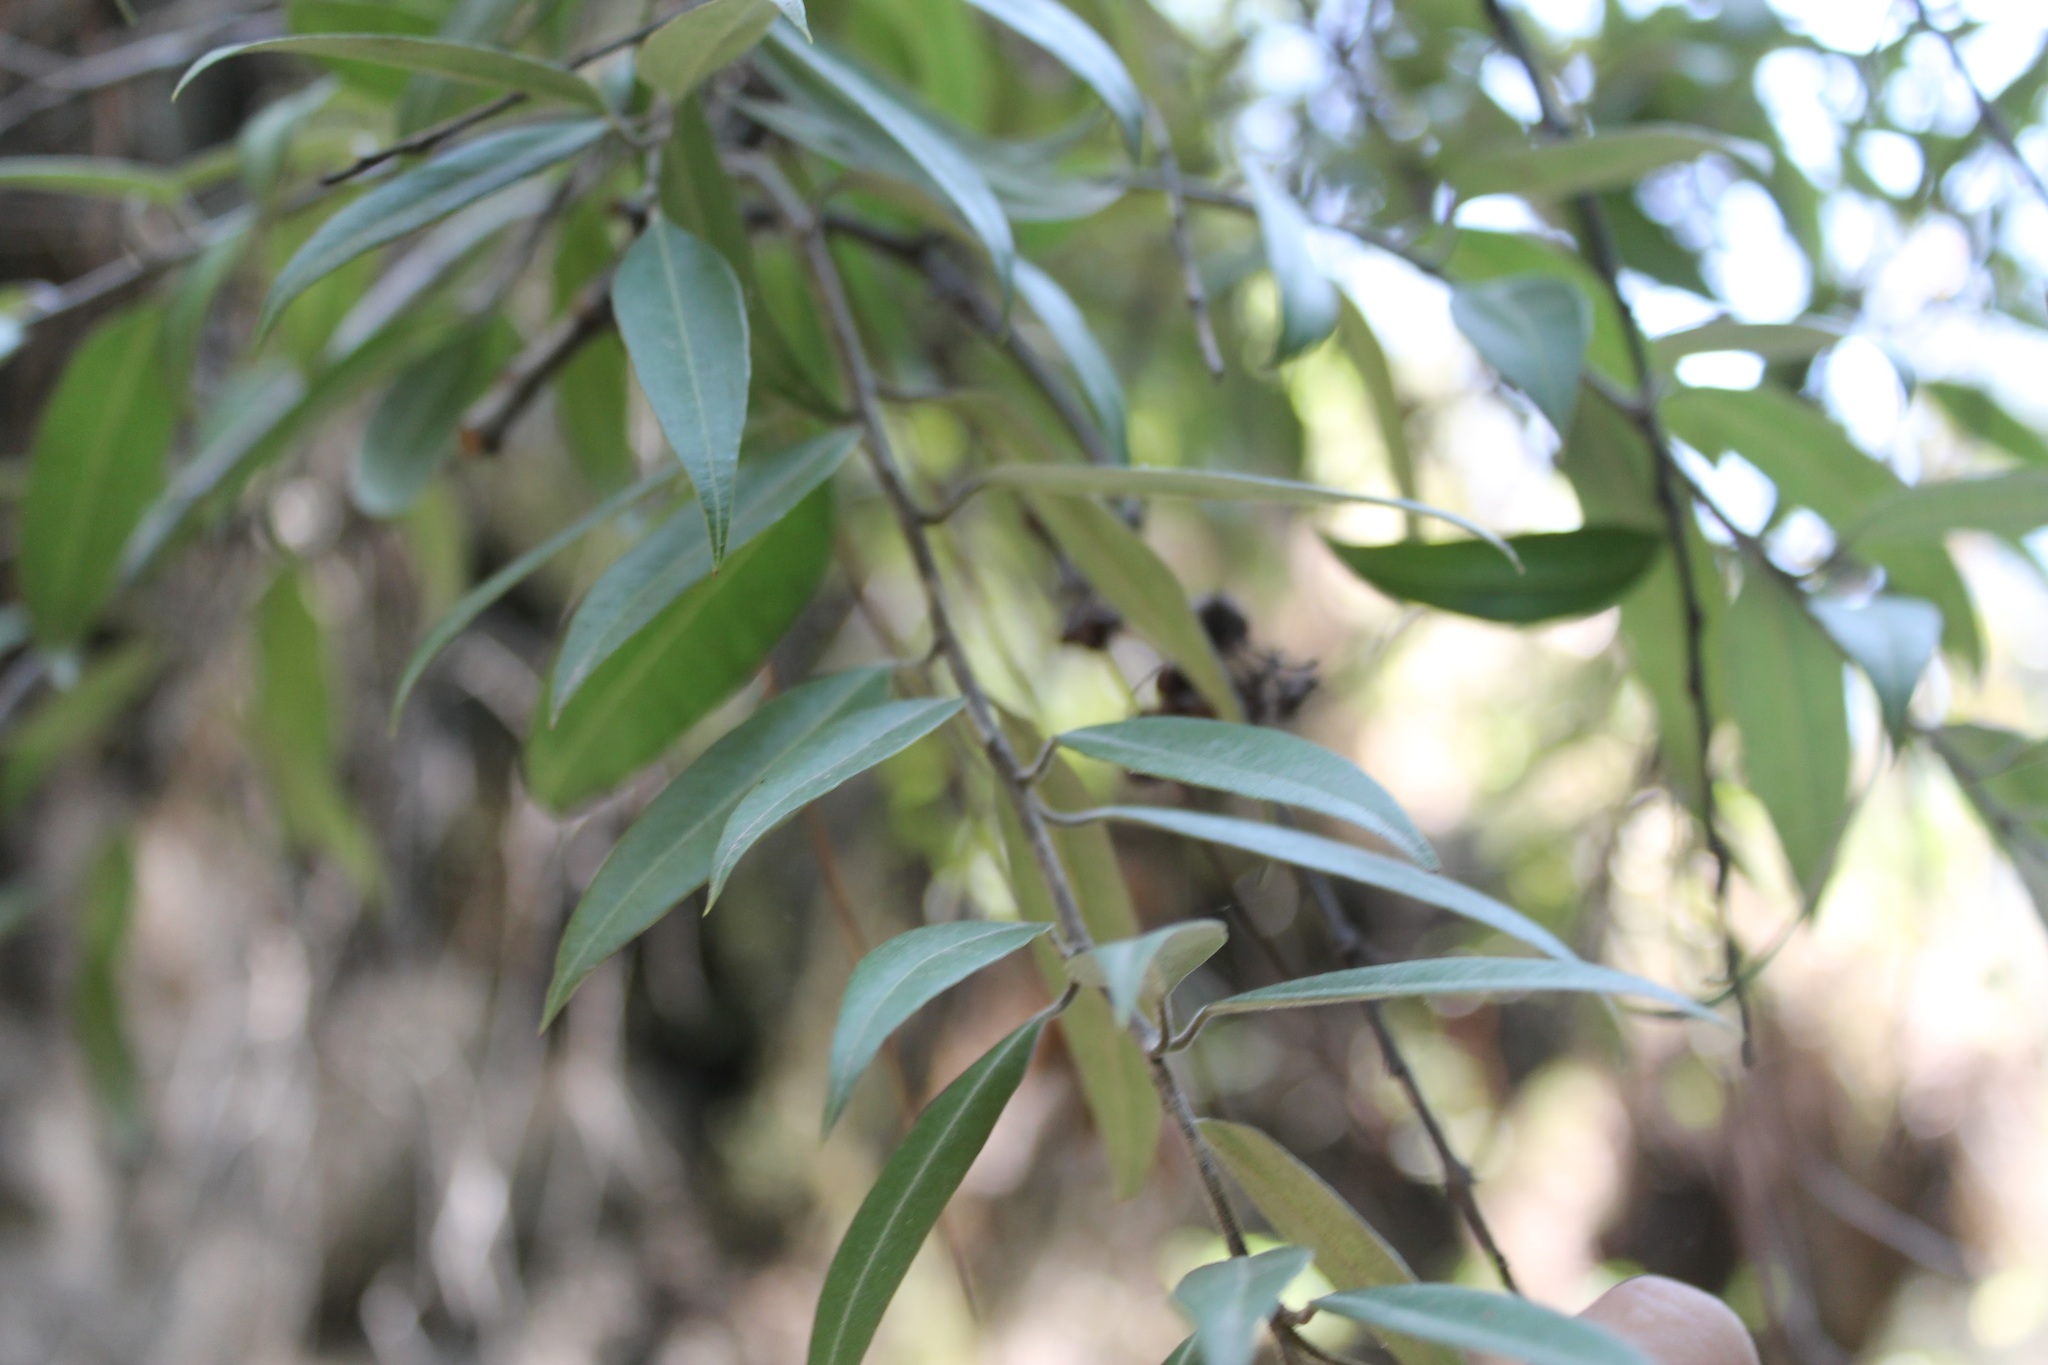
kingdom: Plantae
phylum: Tracheophyta
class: Magnoliopsida
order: Ericales
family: Ericaceae
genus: Agarista
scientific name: Agarista mexicana
